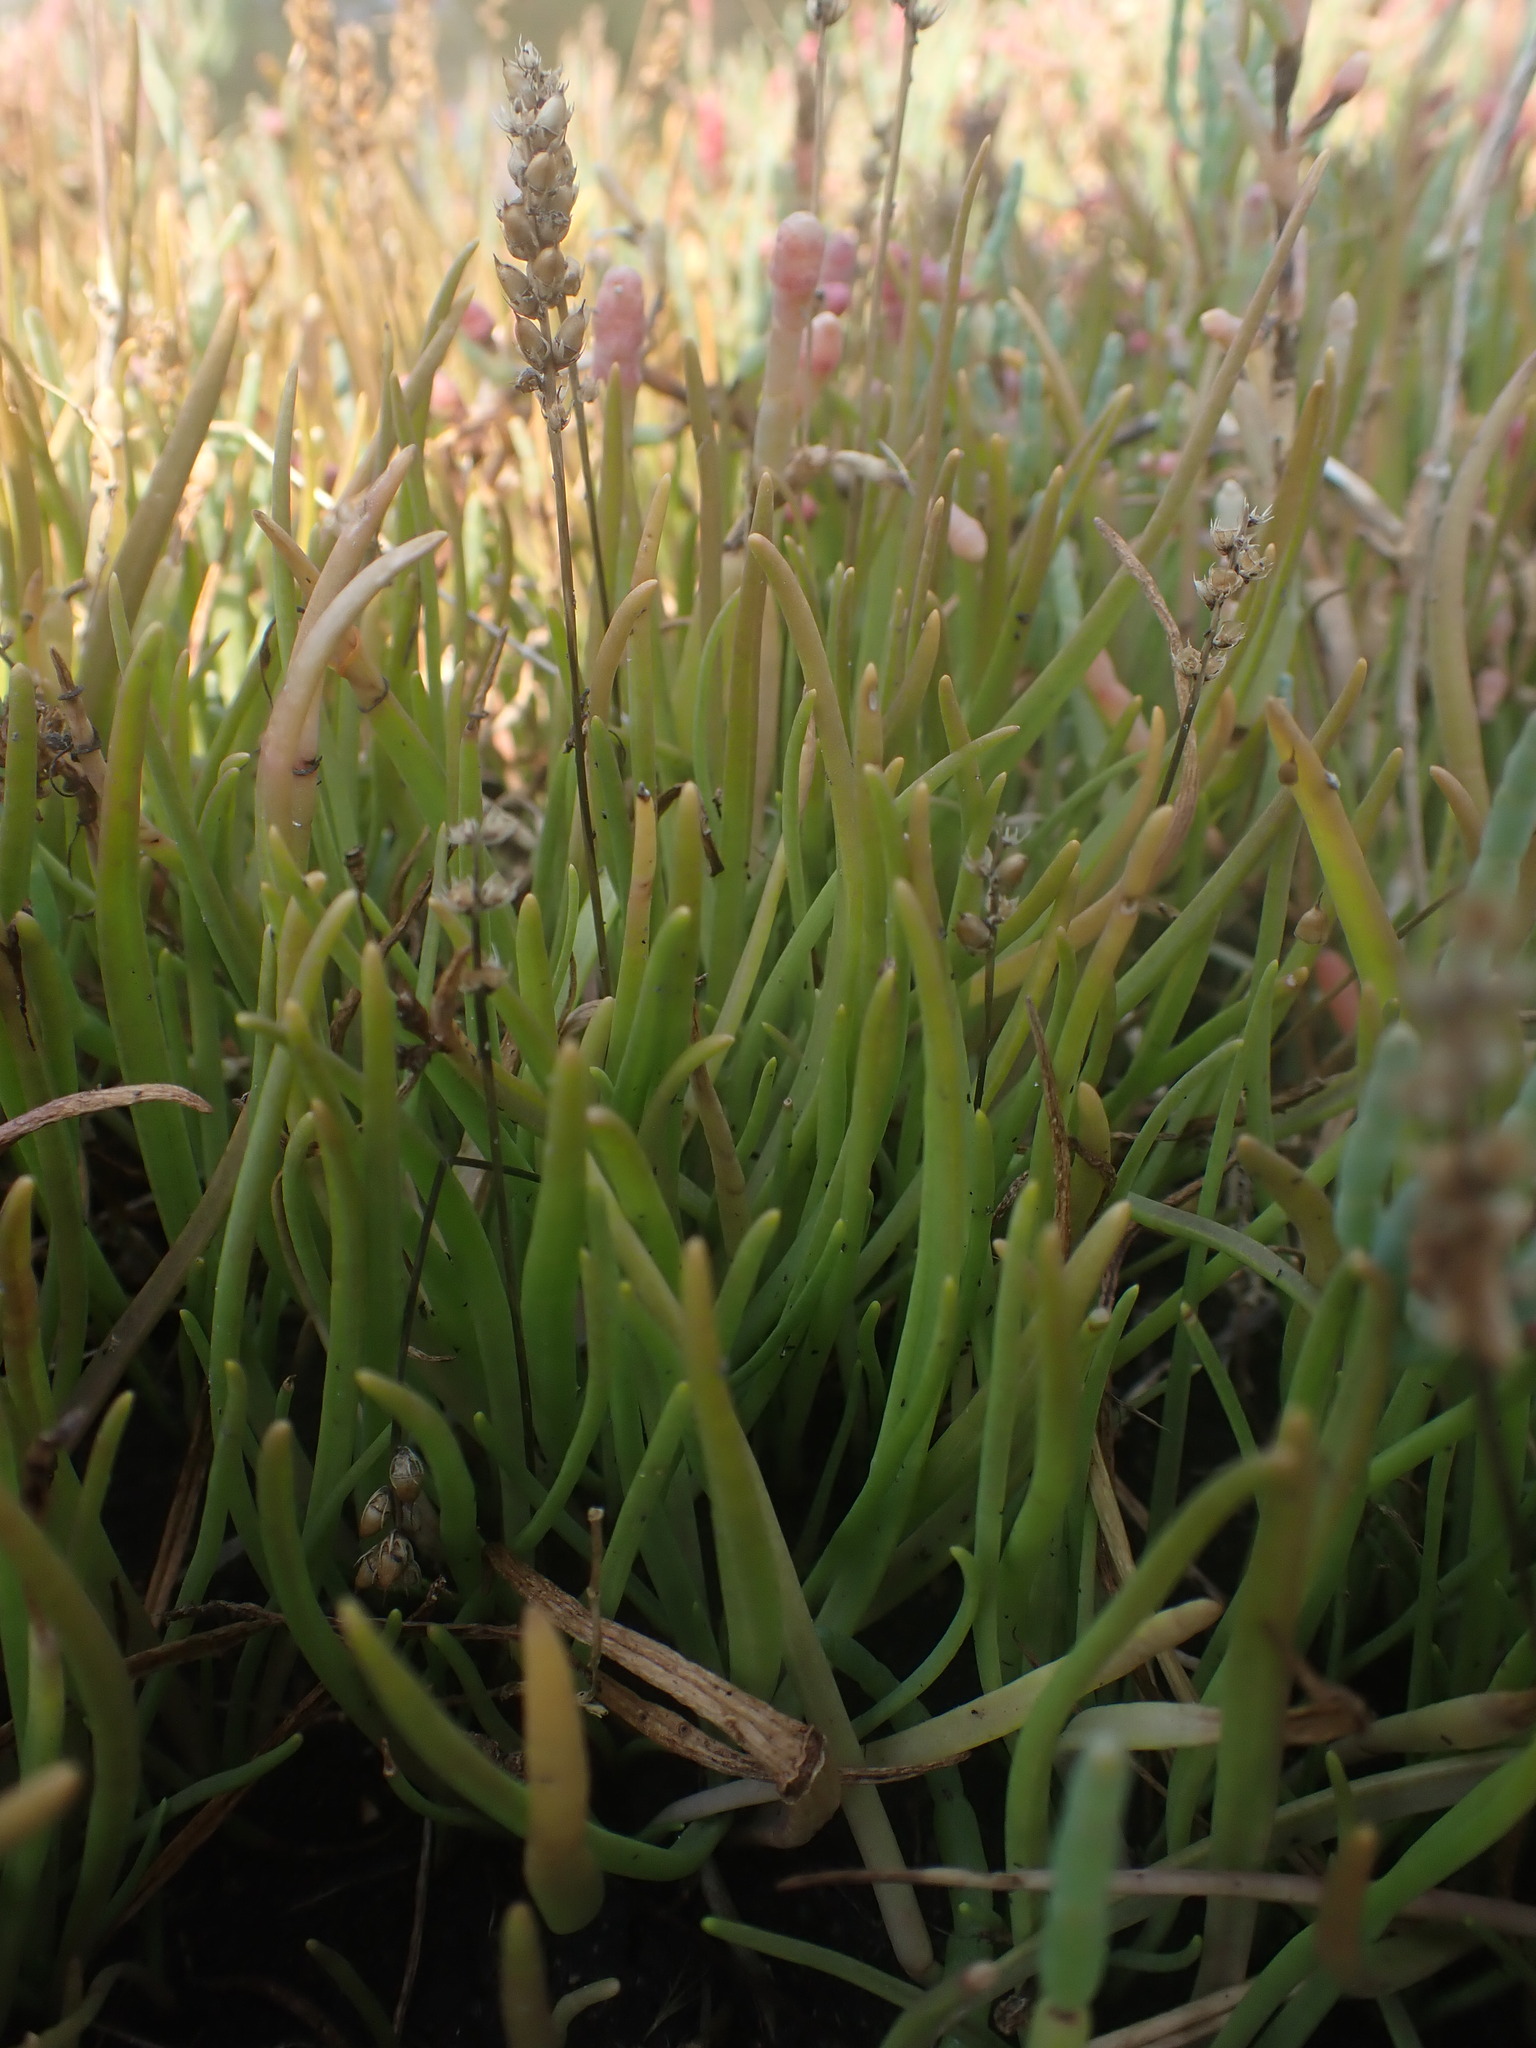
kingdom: Plantae
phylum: Tracheophyta
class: Magnoliopsida
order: Lamiales
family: Plantaginaceae
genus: Plantago
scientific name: Plantago maritima
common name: Sea plantain
